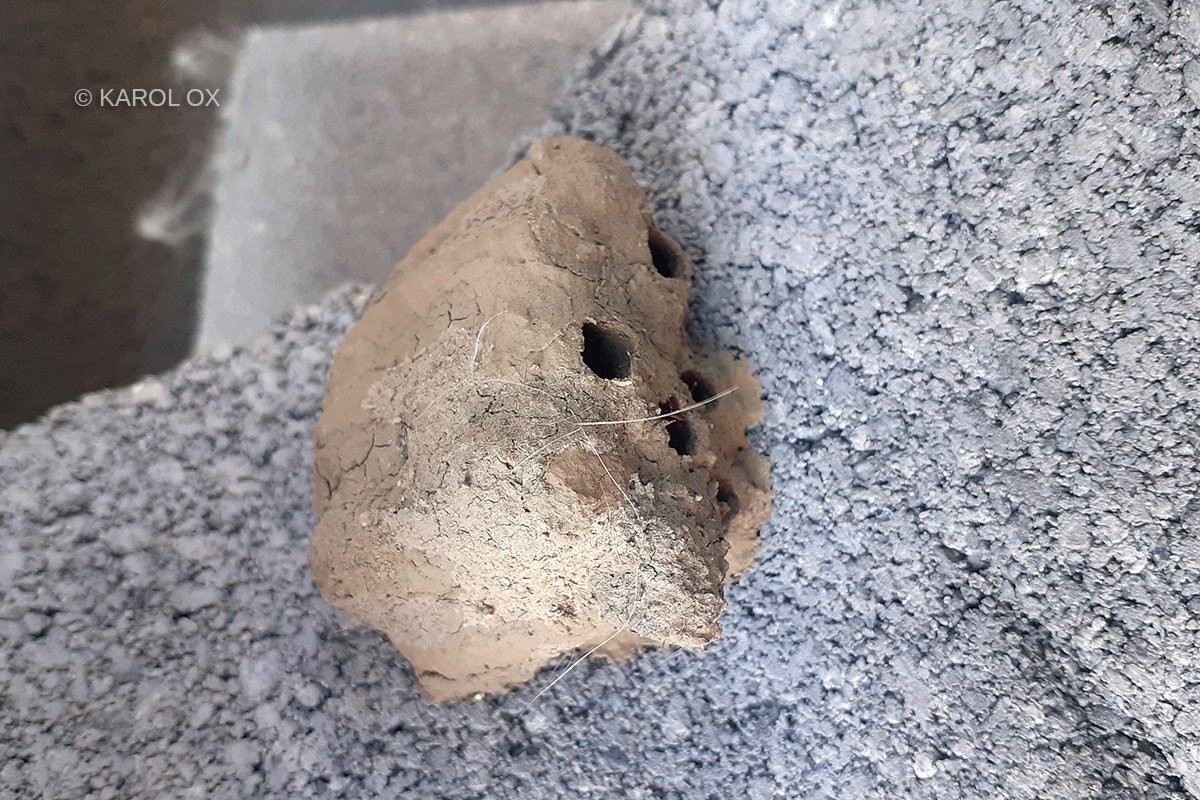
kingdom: Animalia
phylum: Arthropoda
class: Insecta
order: Hymenoptera
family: Sphecidae
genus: Sceliphron
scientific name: Sceliphron
